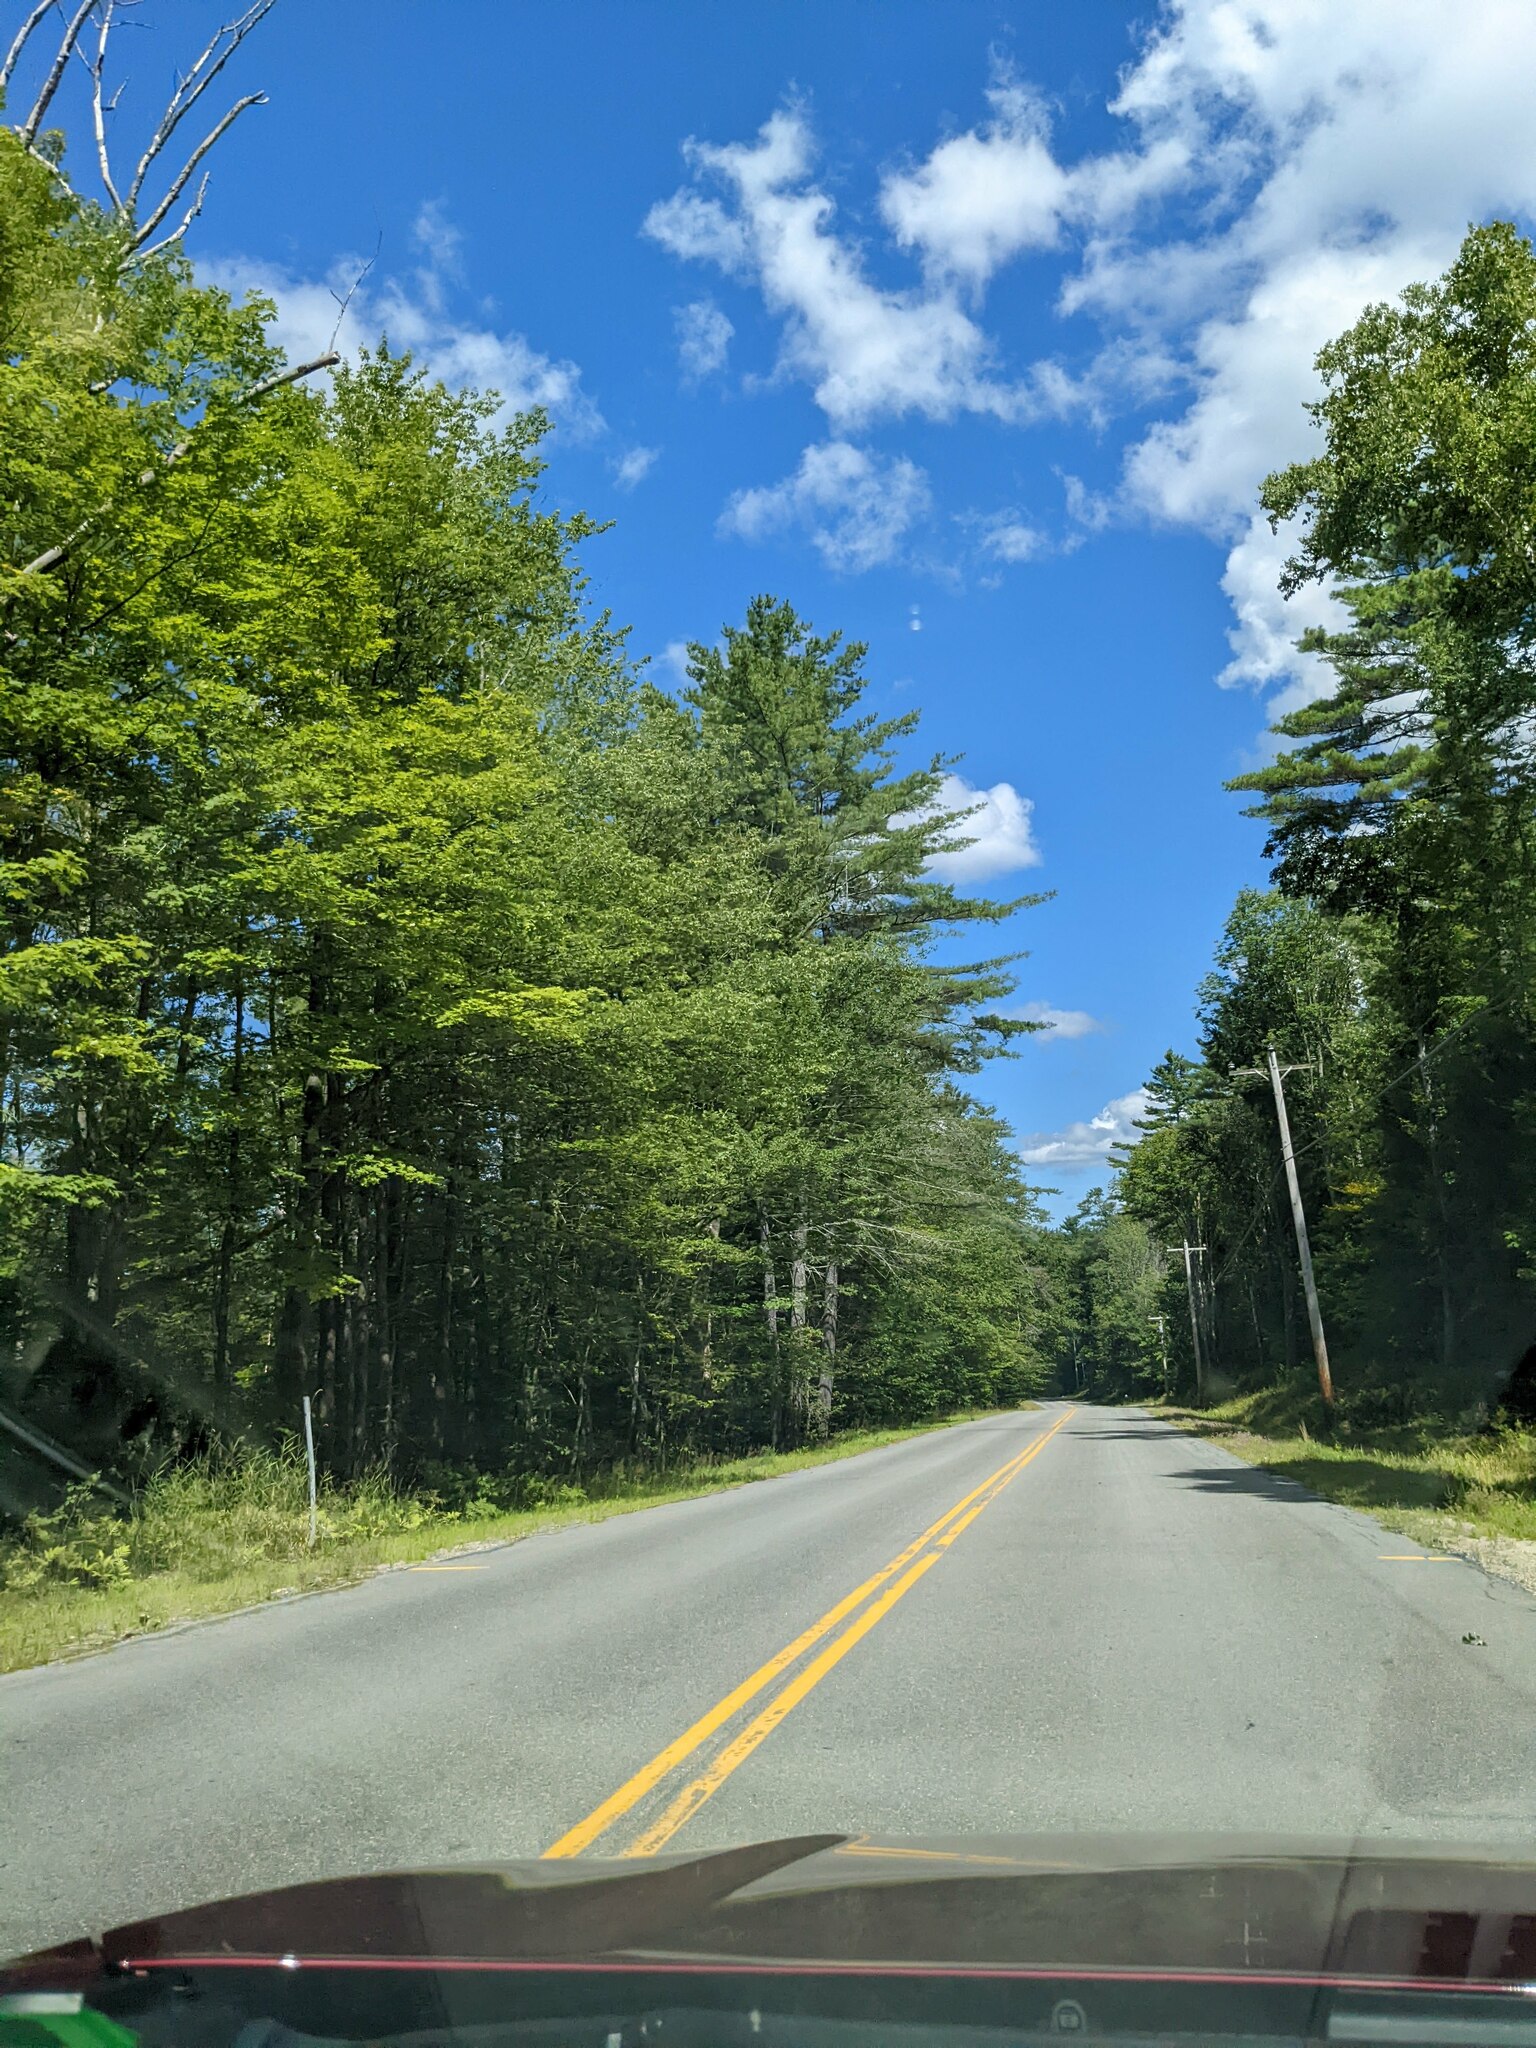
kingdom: Plantae
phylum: Tracheophyta
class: Pinopsida
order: Pinales
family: Pinaceae
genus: Pinus
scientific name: Pinus strobus
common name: Weymouth pine
